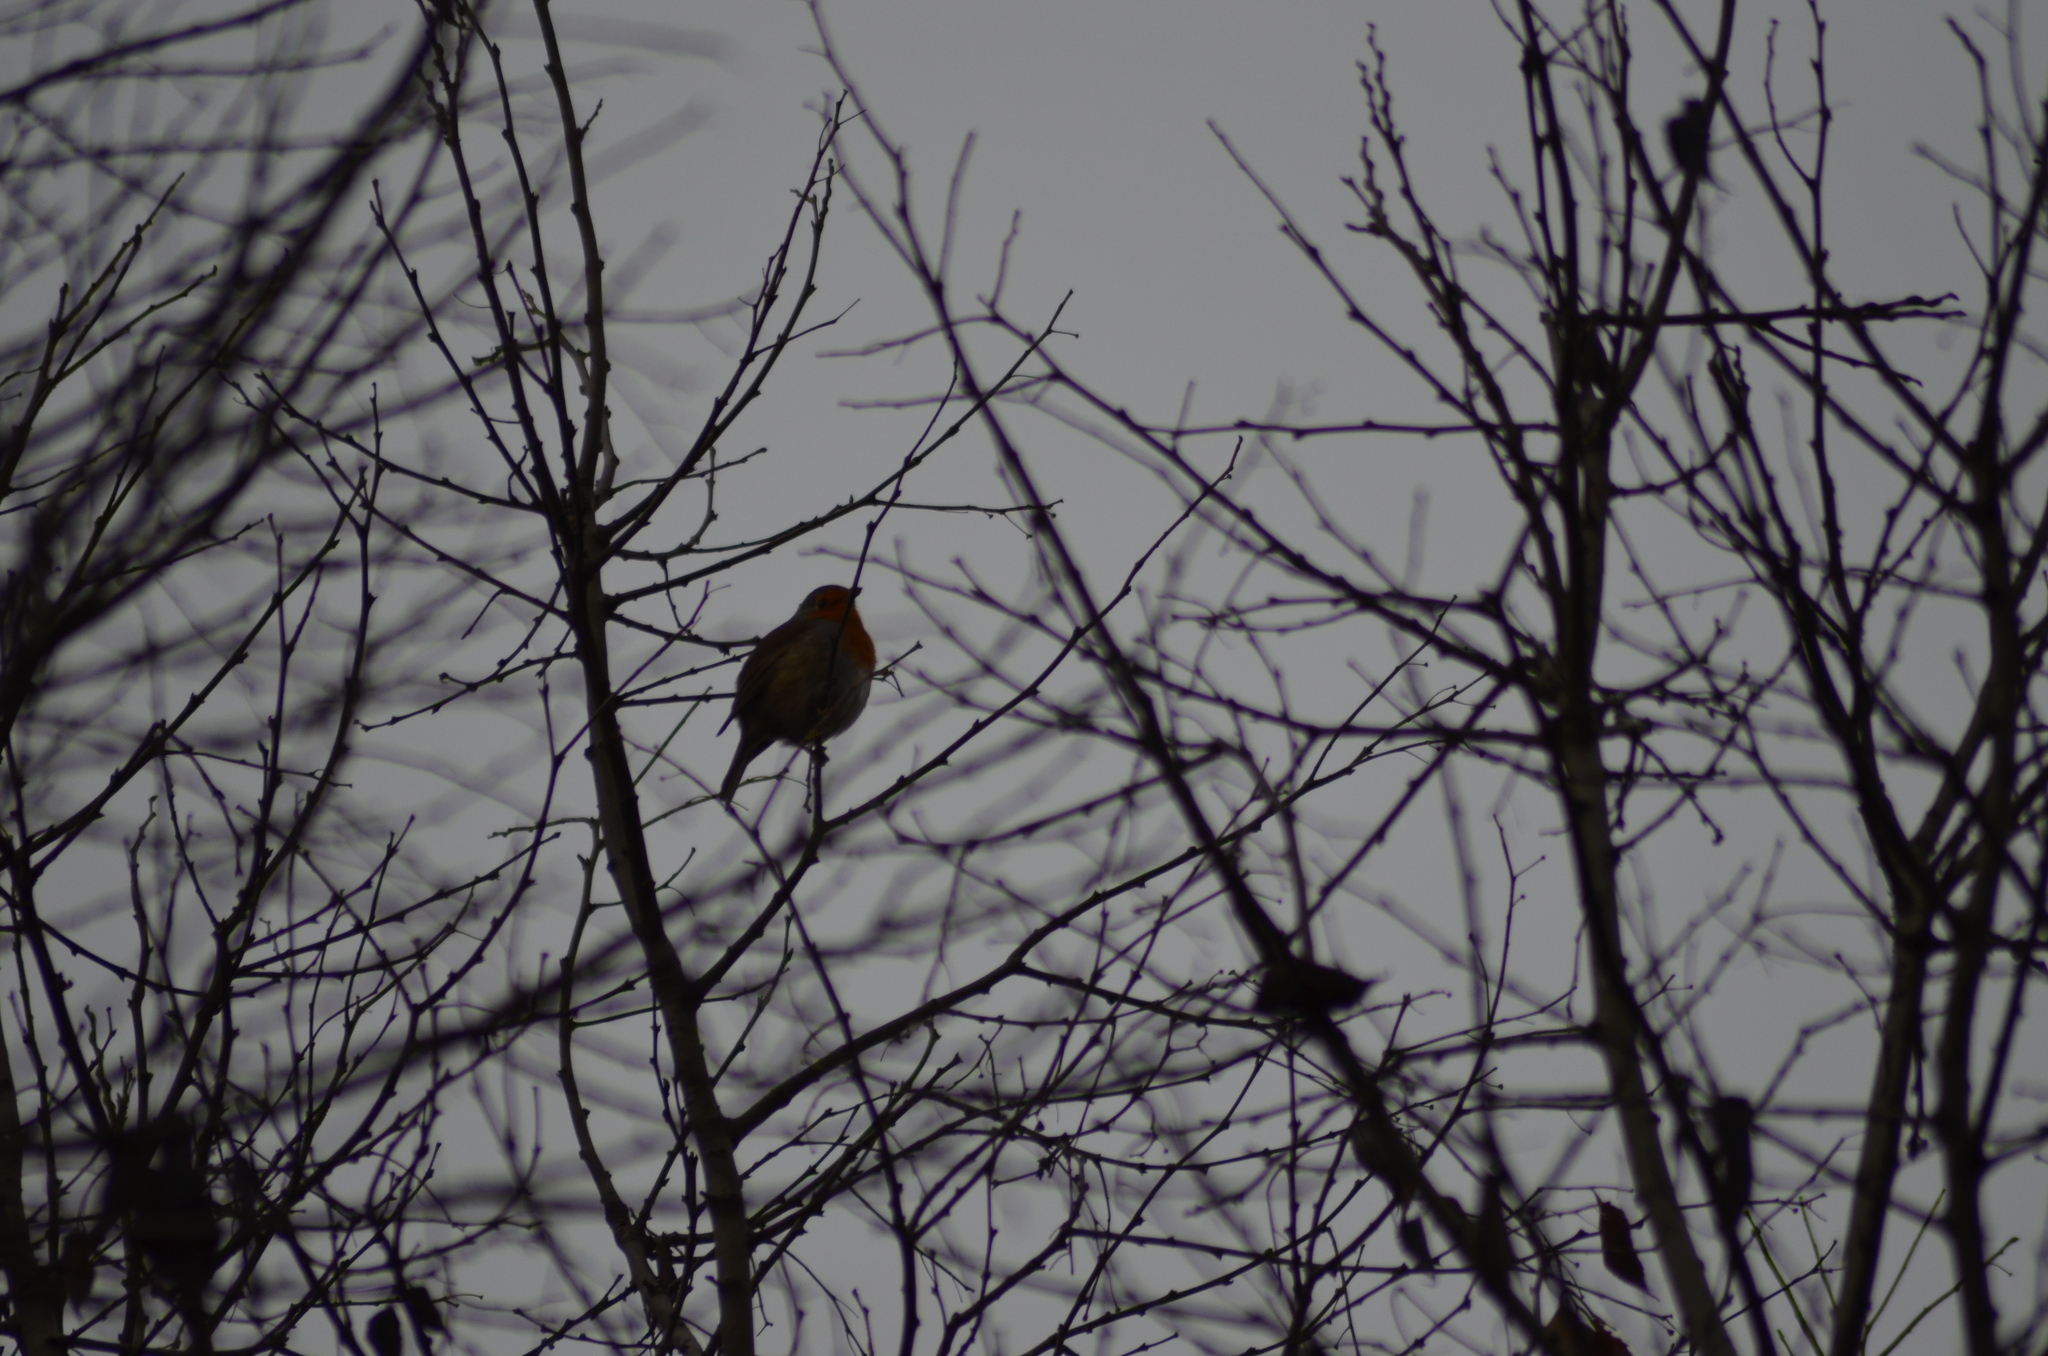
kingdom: Animalia
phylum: Chordata
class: Aves
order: Passeriformes
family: Muscicapidae
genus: Erithacus
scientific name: Erithacus rubecula
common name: European robin
